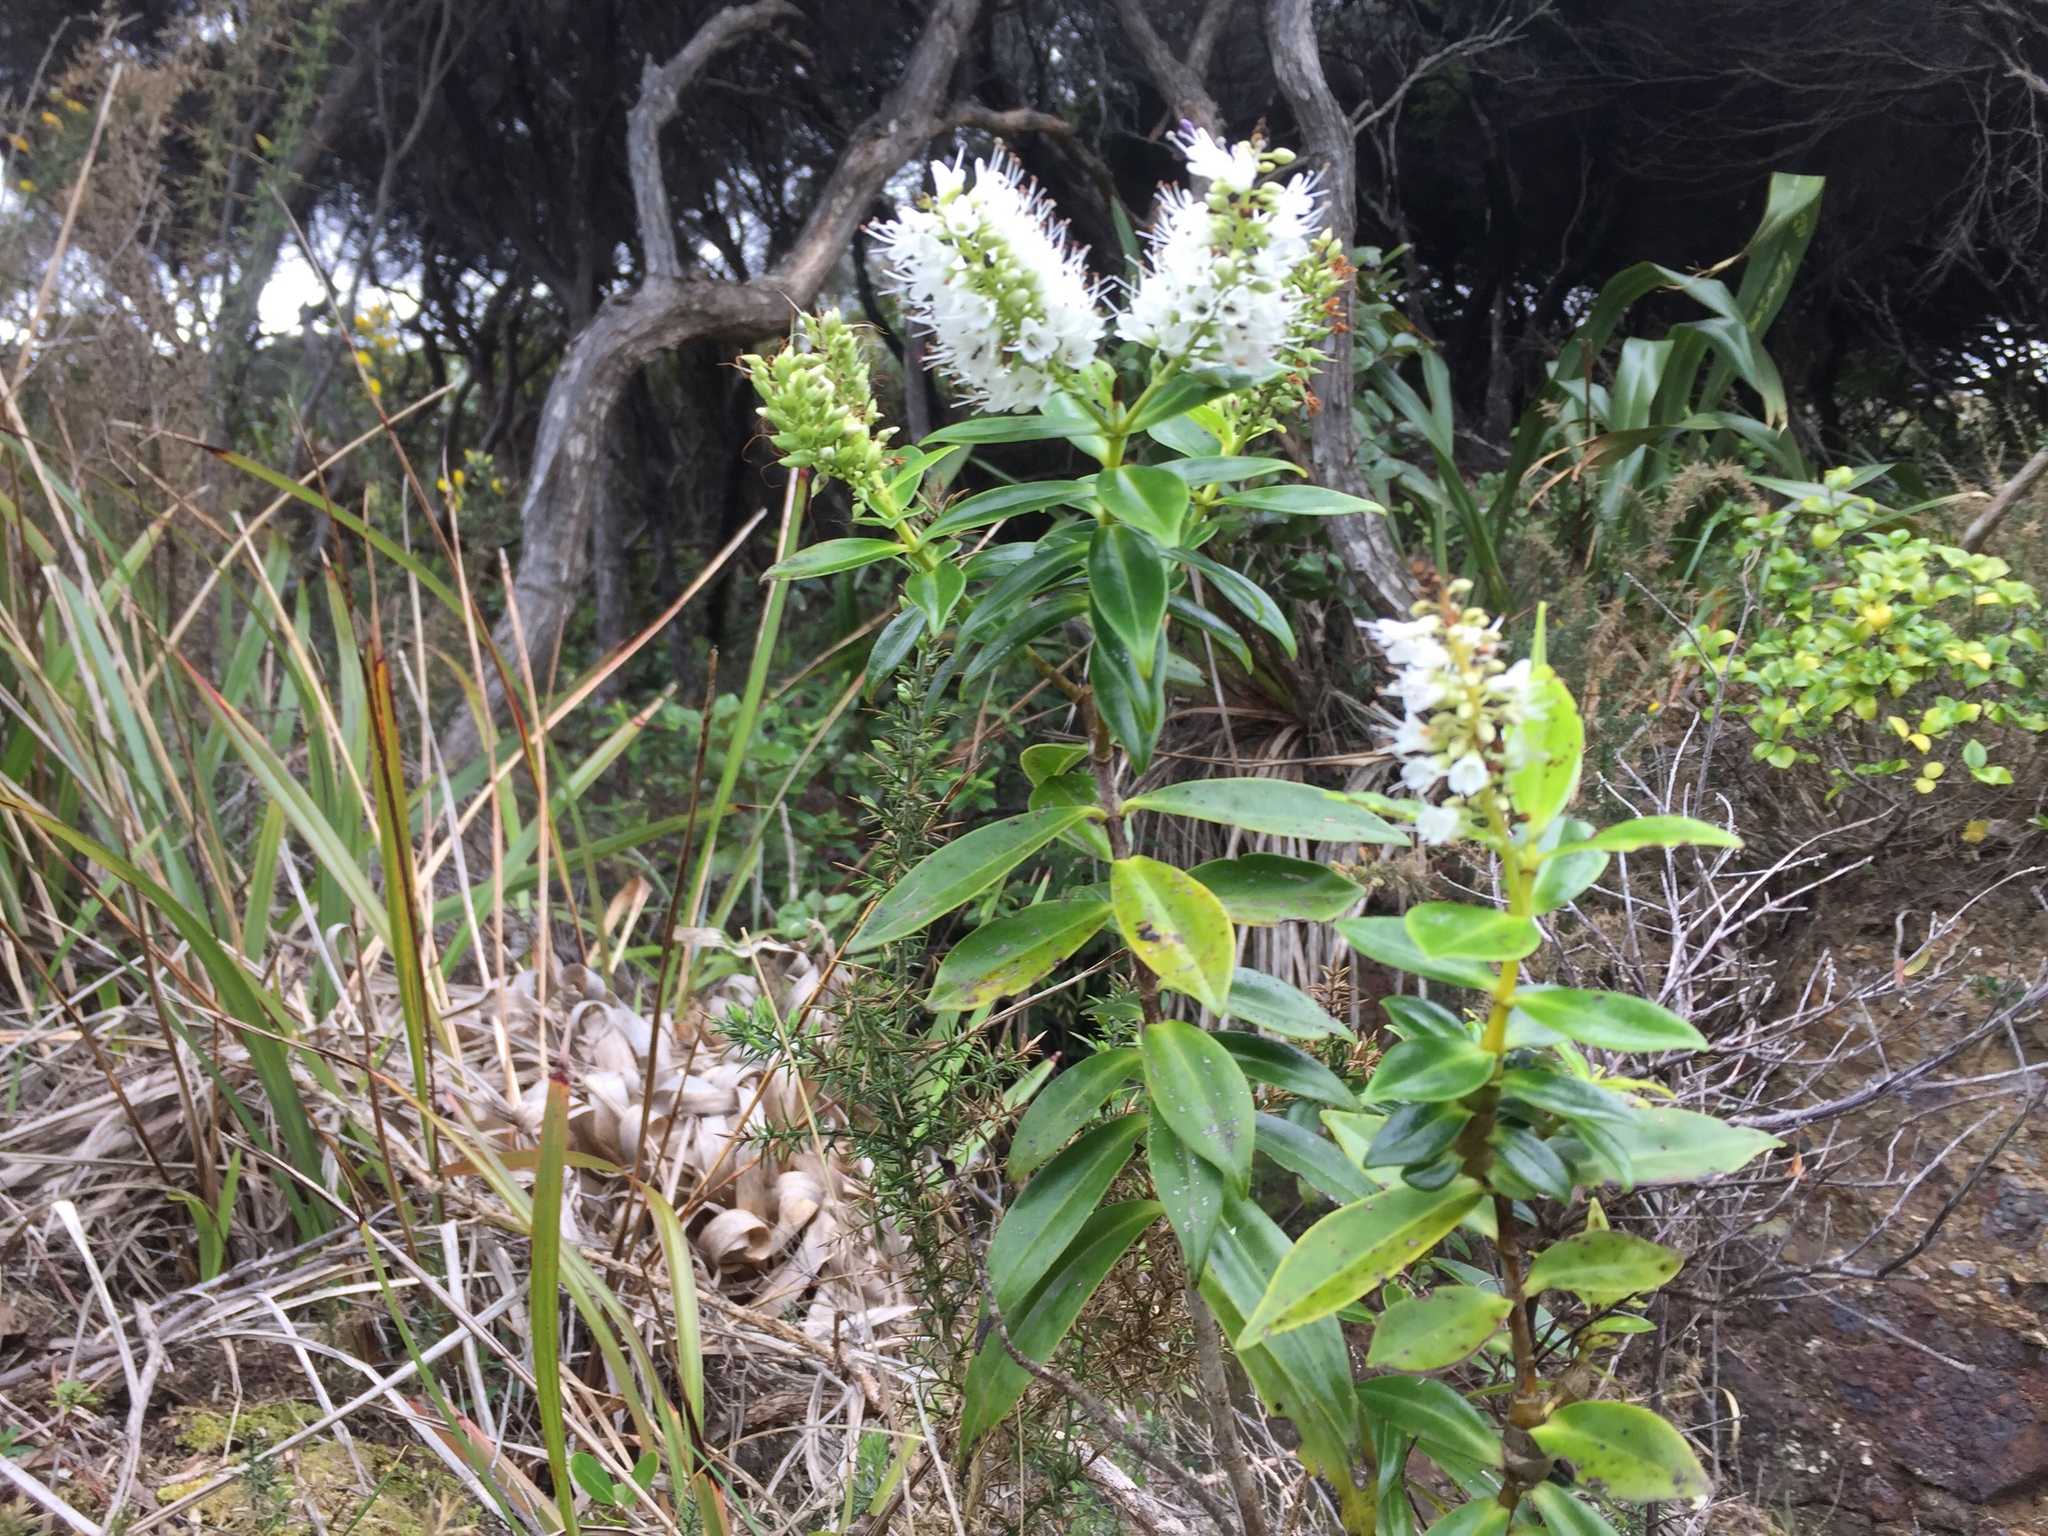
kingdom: Plantae
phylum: Tracheophyta
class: Magnoliopsida
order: Lamiales
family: Plantaginaceae
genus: Veronica
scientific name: Veronica macrocarpa
